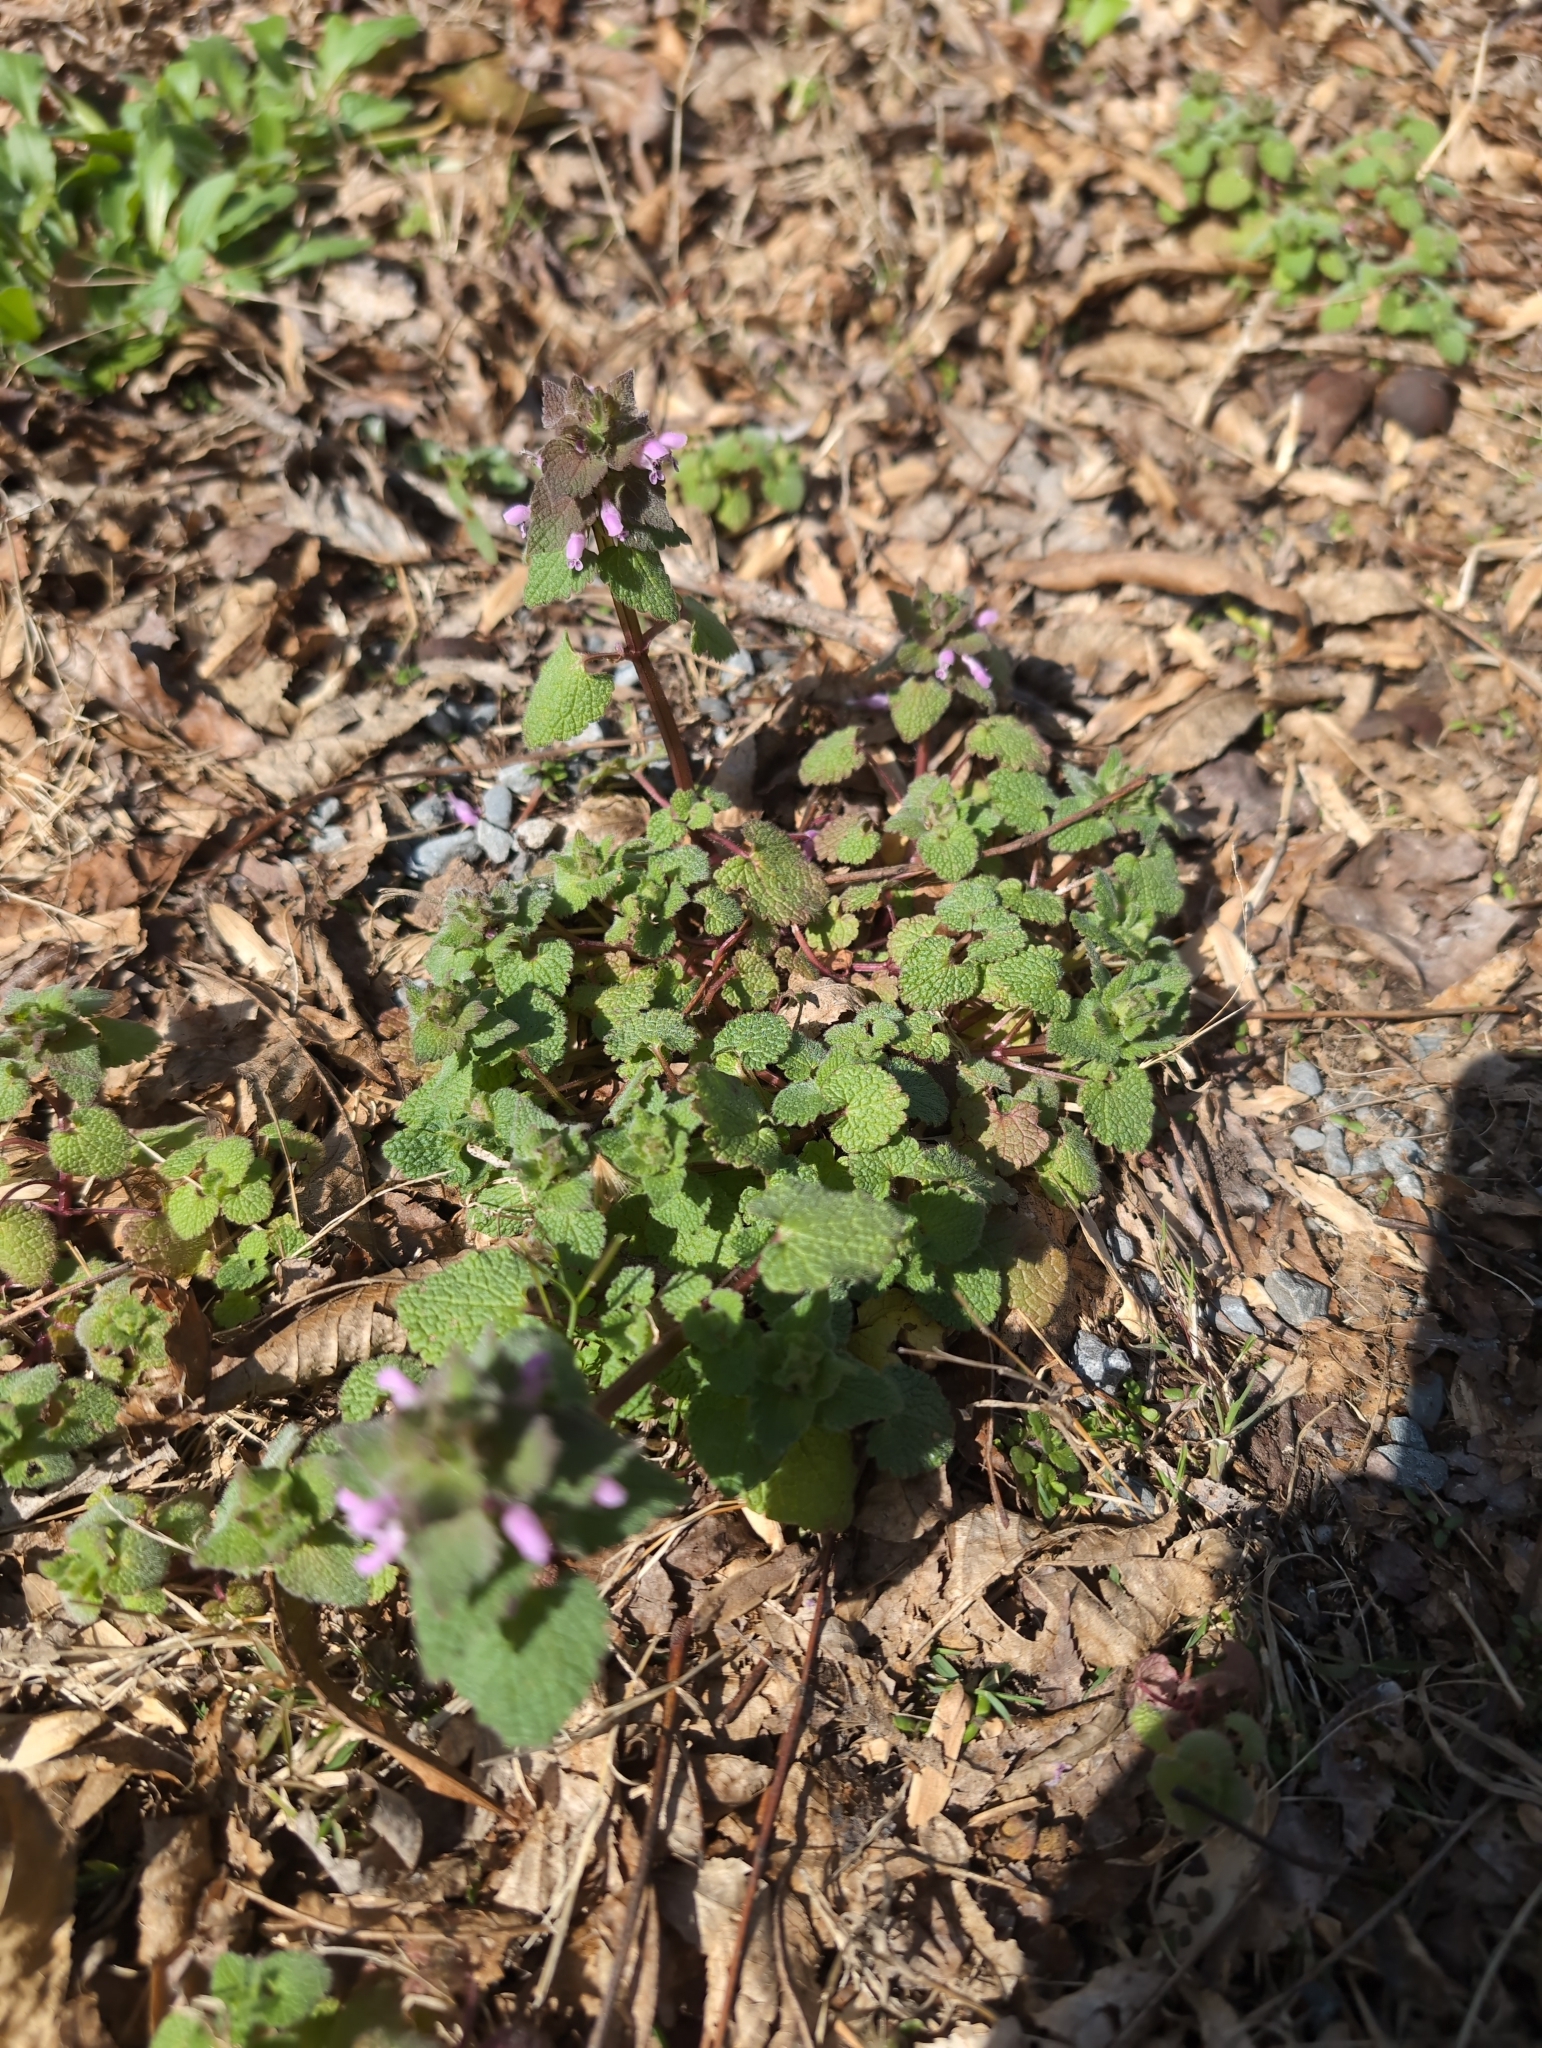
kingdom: Plantae
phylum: Tracheophyta
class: Magnoliopsida
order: Lamiales
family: Lamiaceae
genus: Lamium
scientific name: Lamium purpureum
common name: Red dead-nettle
